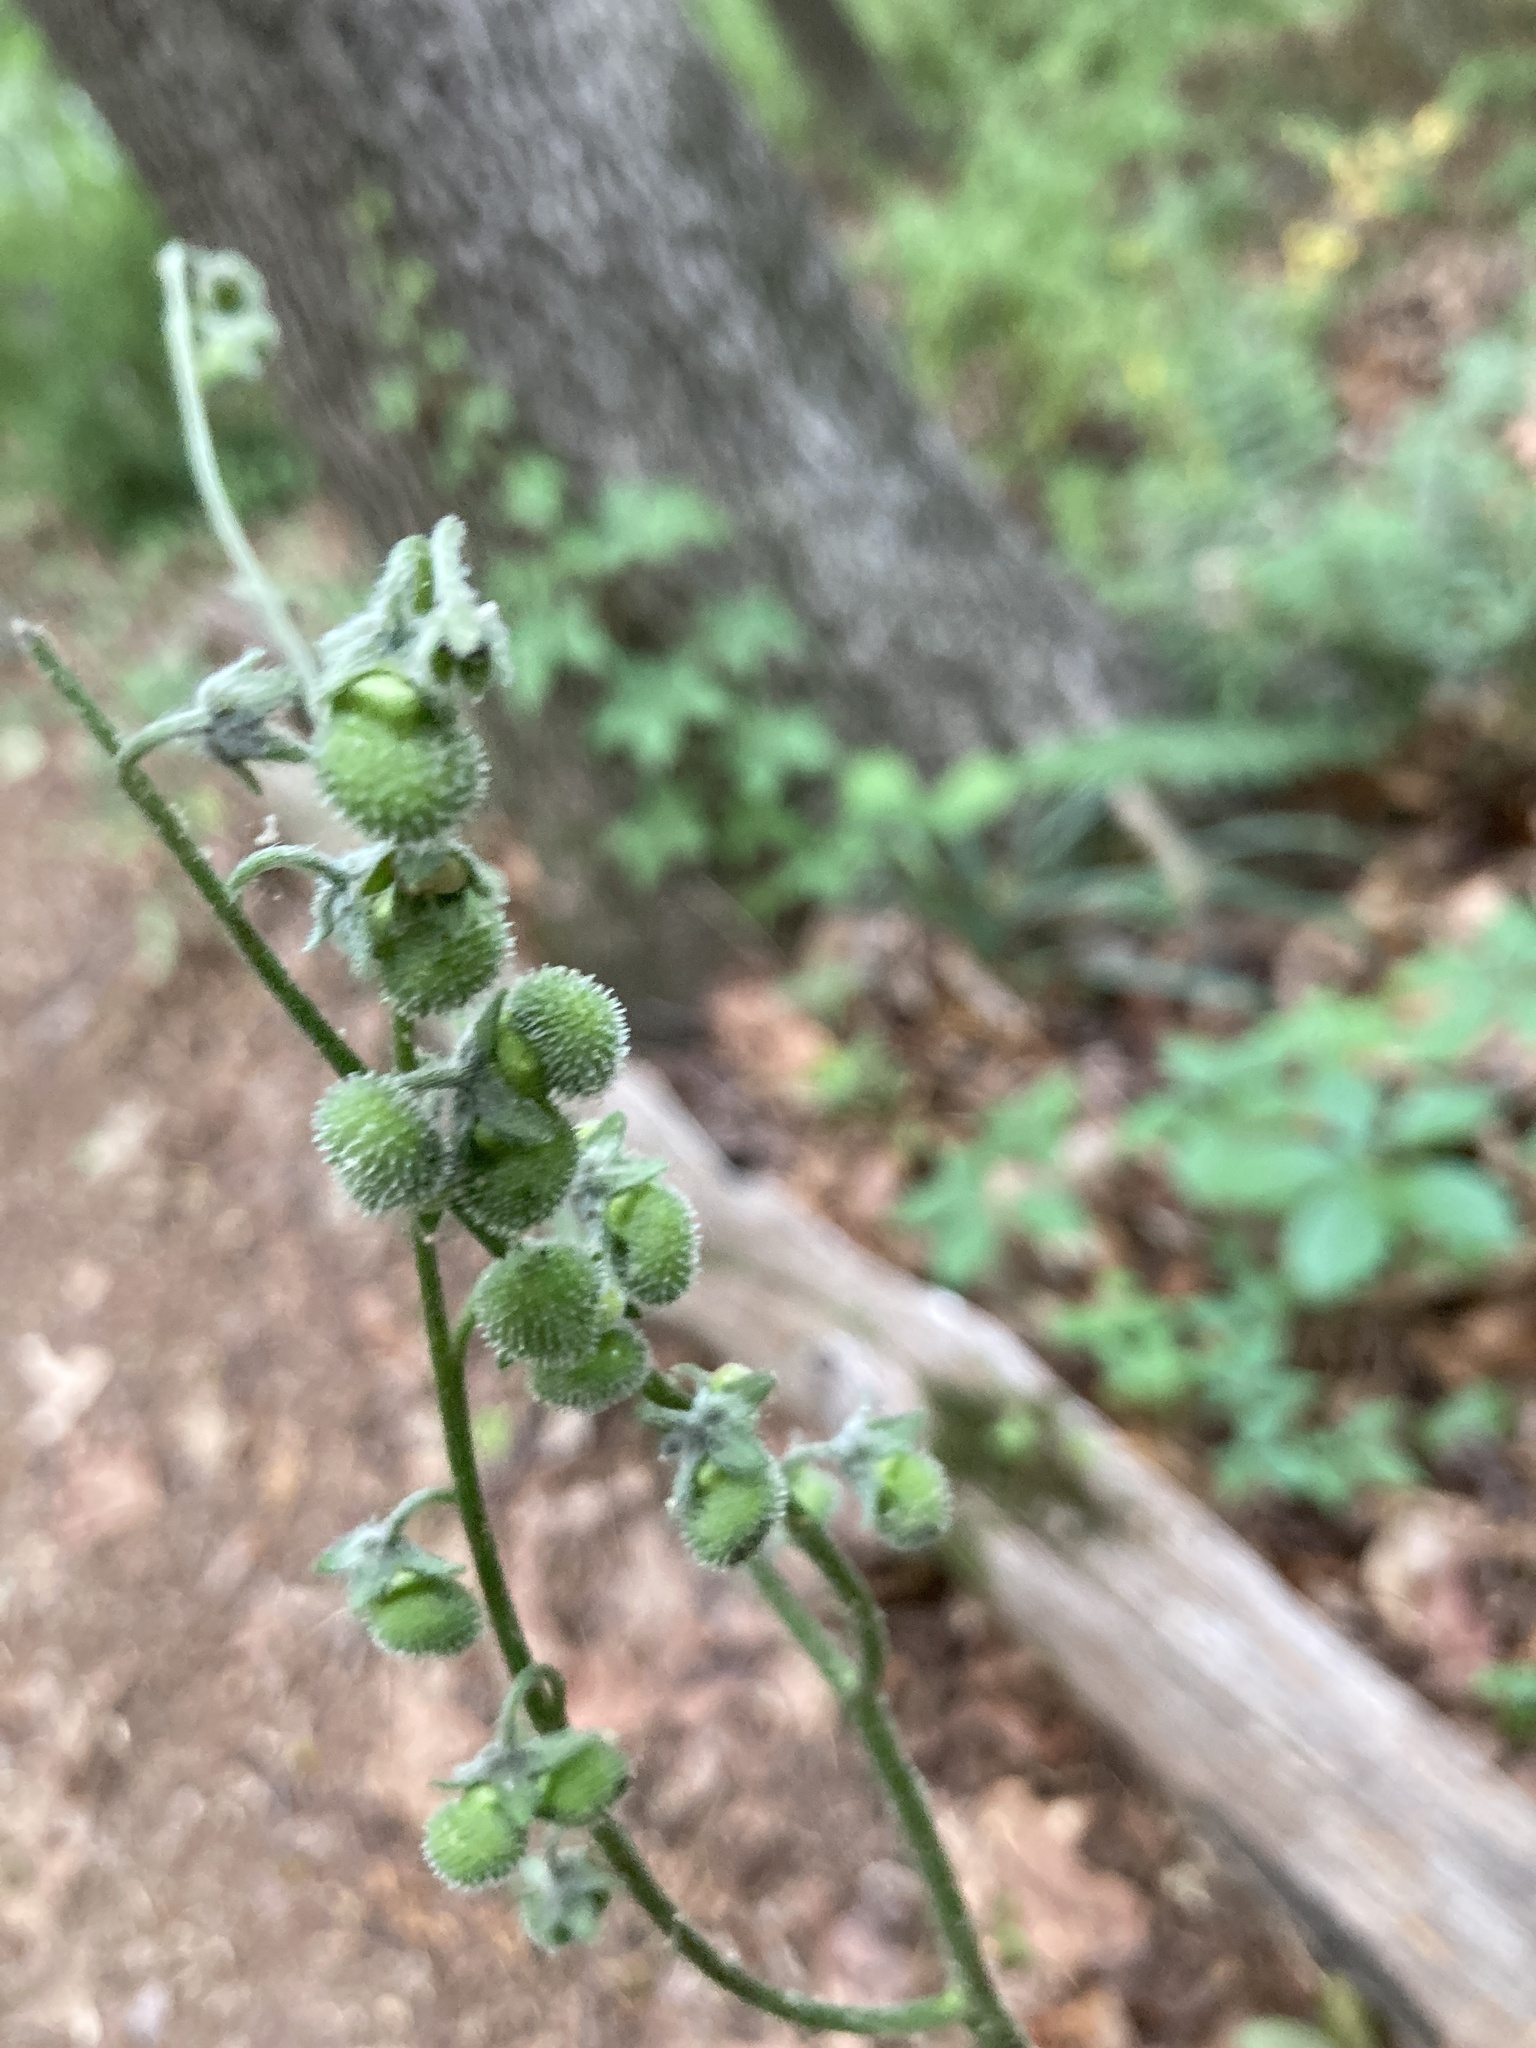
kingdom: Plantae
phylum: Tracheophyta
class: Magnoliopsida
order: Boraginales
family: Boraginaceae
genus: Andersonglossum
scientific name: Andersonglossum virginianum
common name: Wild comfrey
